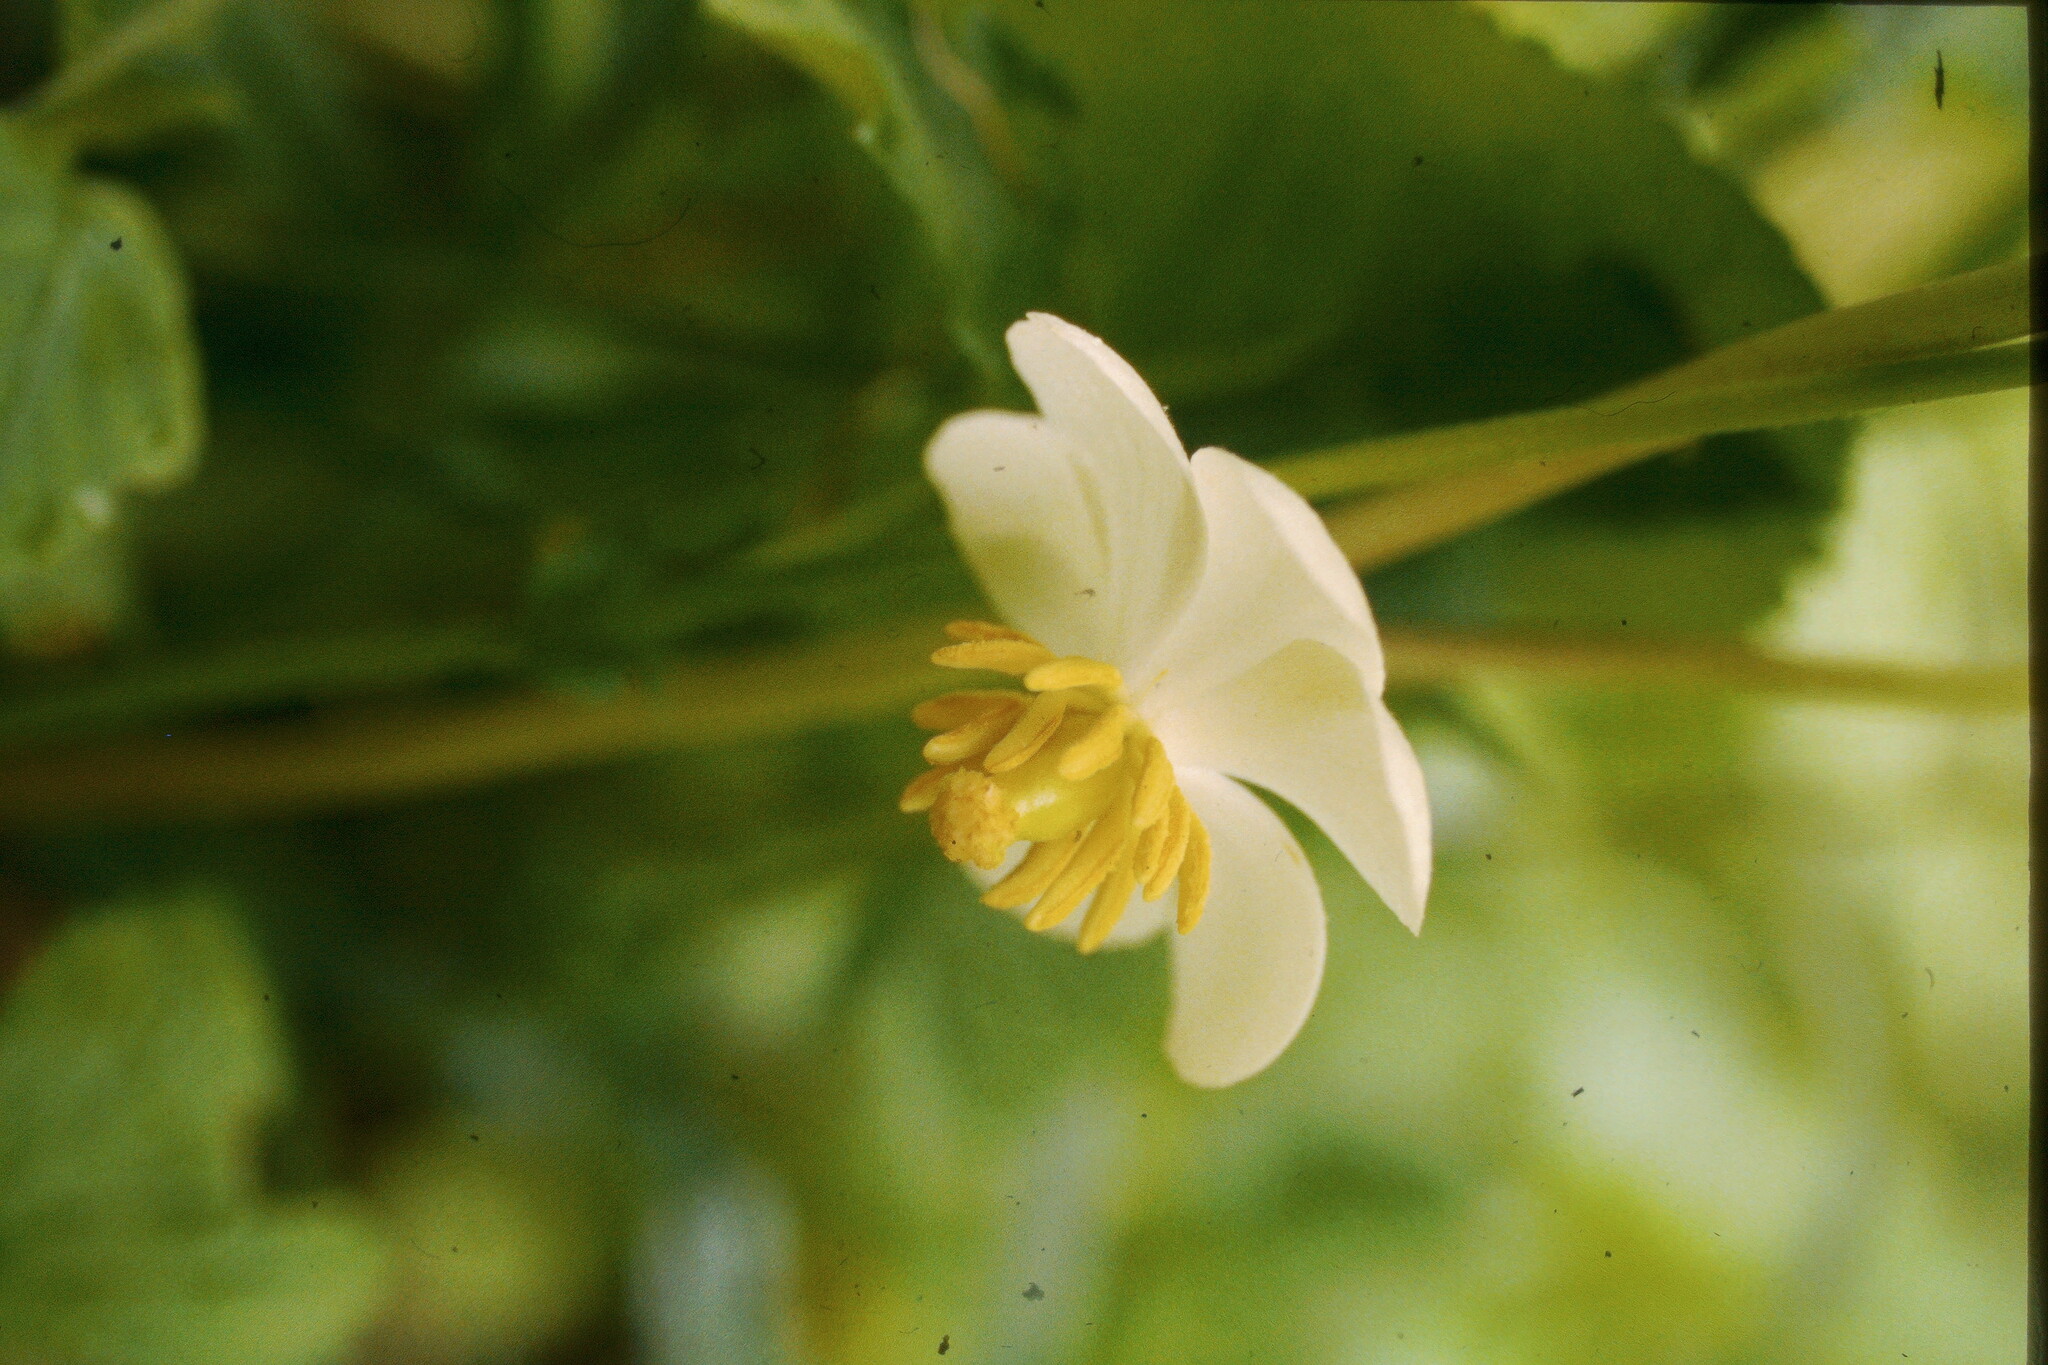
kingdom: Plantae
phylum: Tracheophyta
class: Magnoliopsida
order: Ranunculales
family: Berberidaceae
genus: Podophyllum
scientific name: Podophyllum peltatum
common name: Wild mandrake
